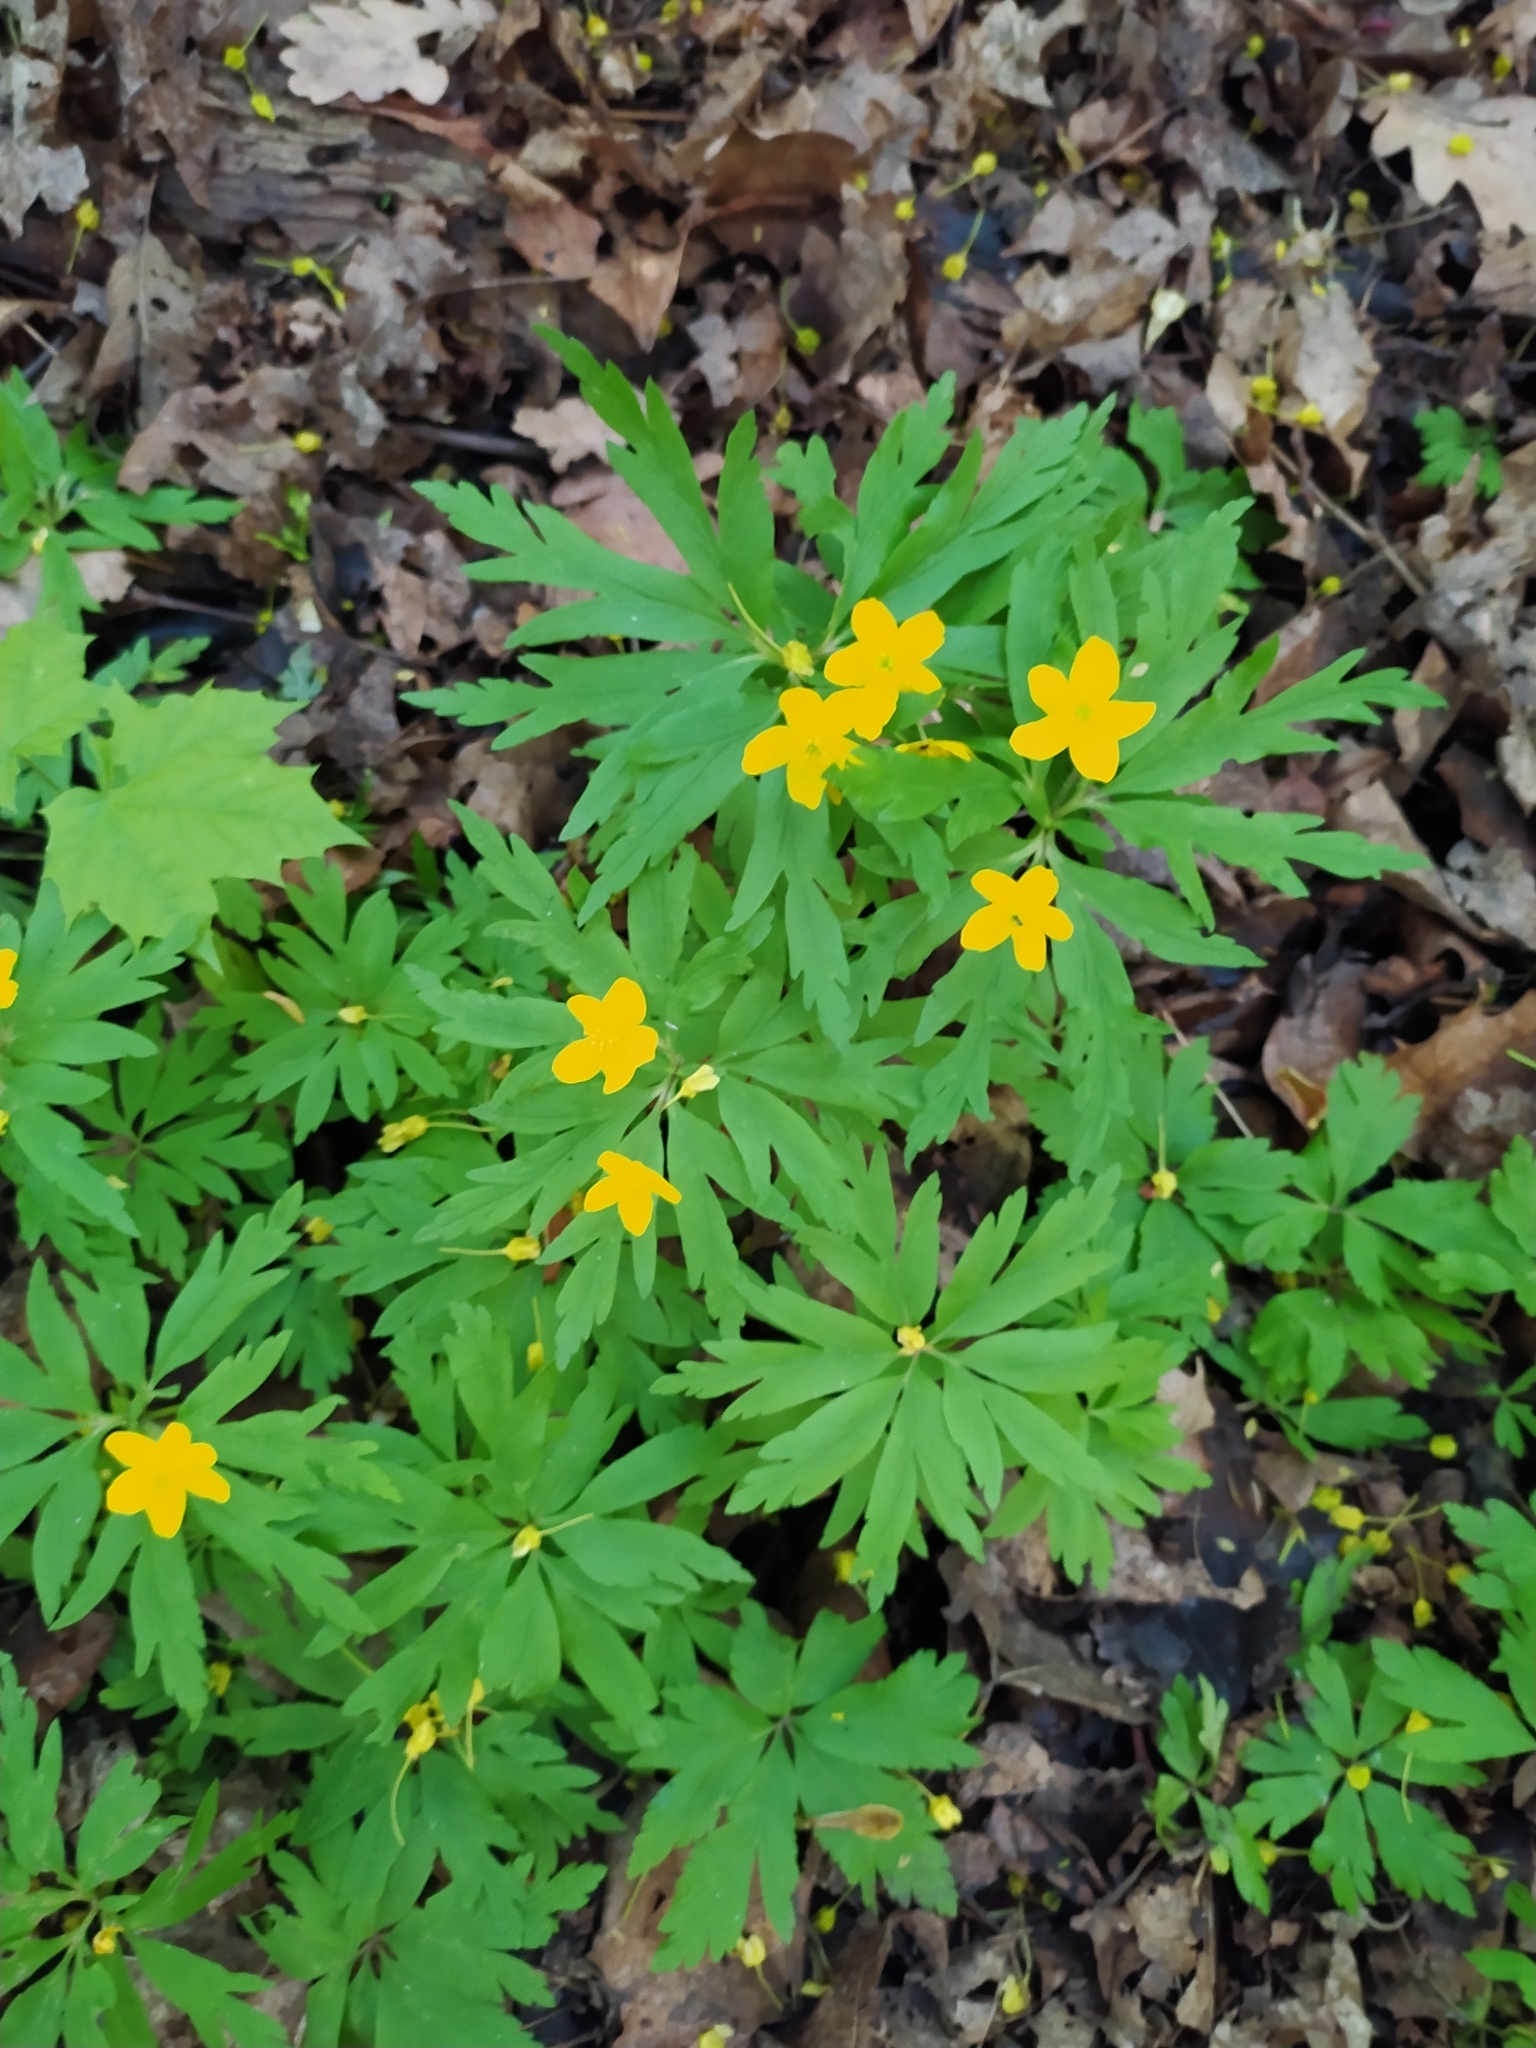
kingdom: Plantae
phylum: Tracheophyta
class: Magnoliopsida
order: Ranunculales
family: Ranunculaceae
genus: Anemone
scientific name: Anemone ranunculoides
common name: Yellow anemone
